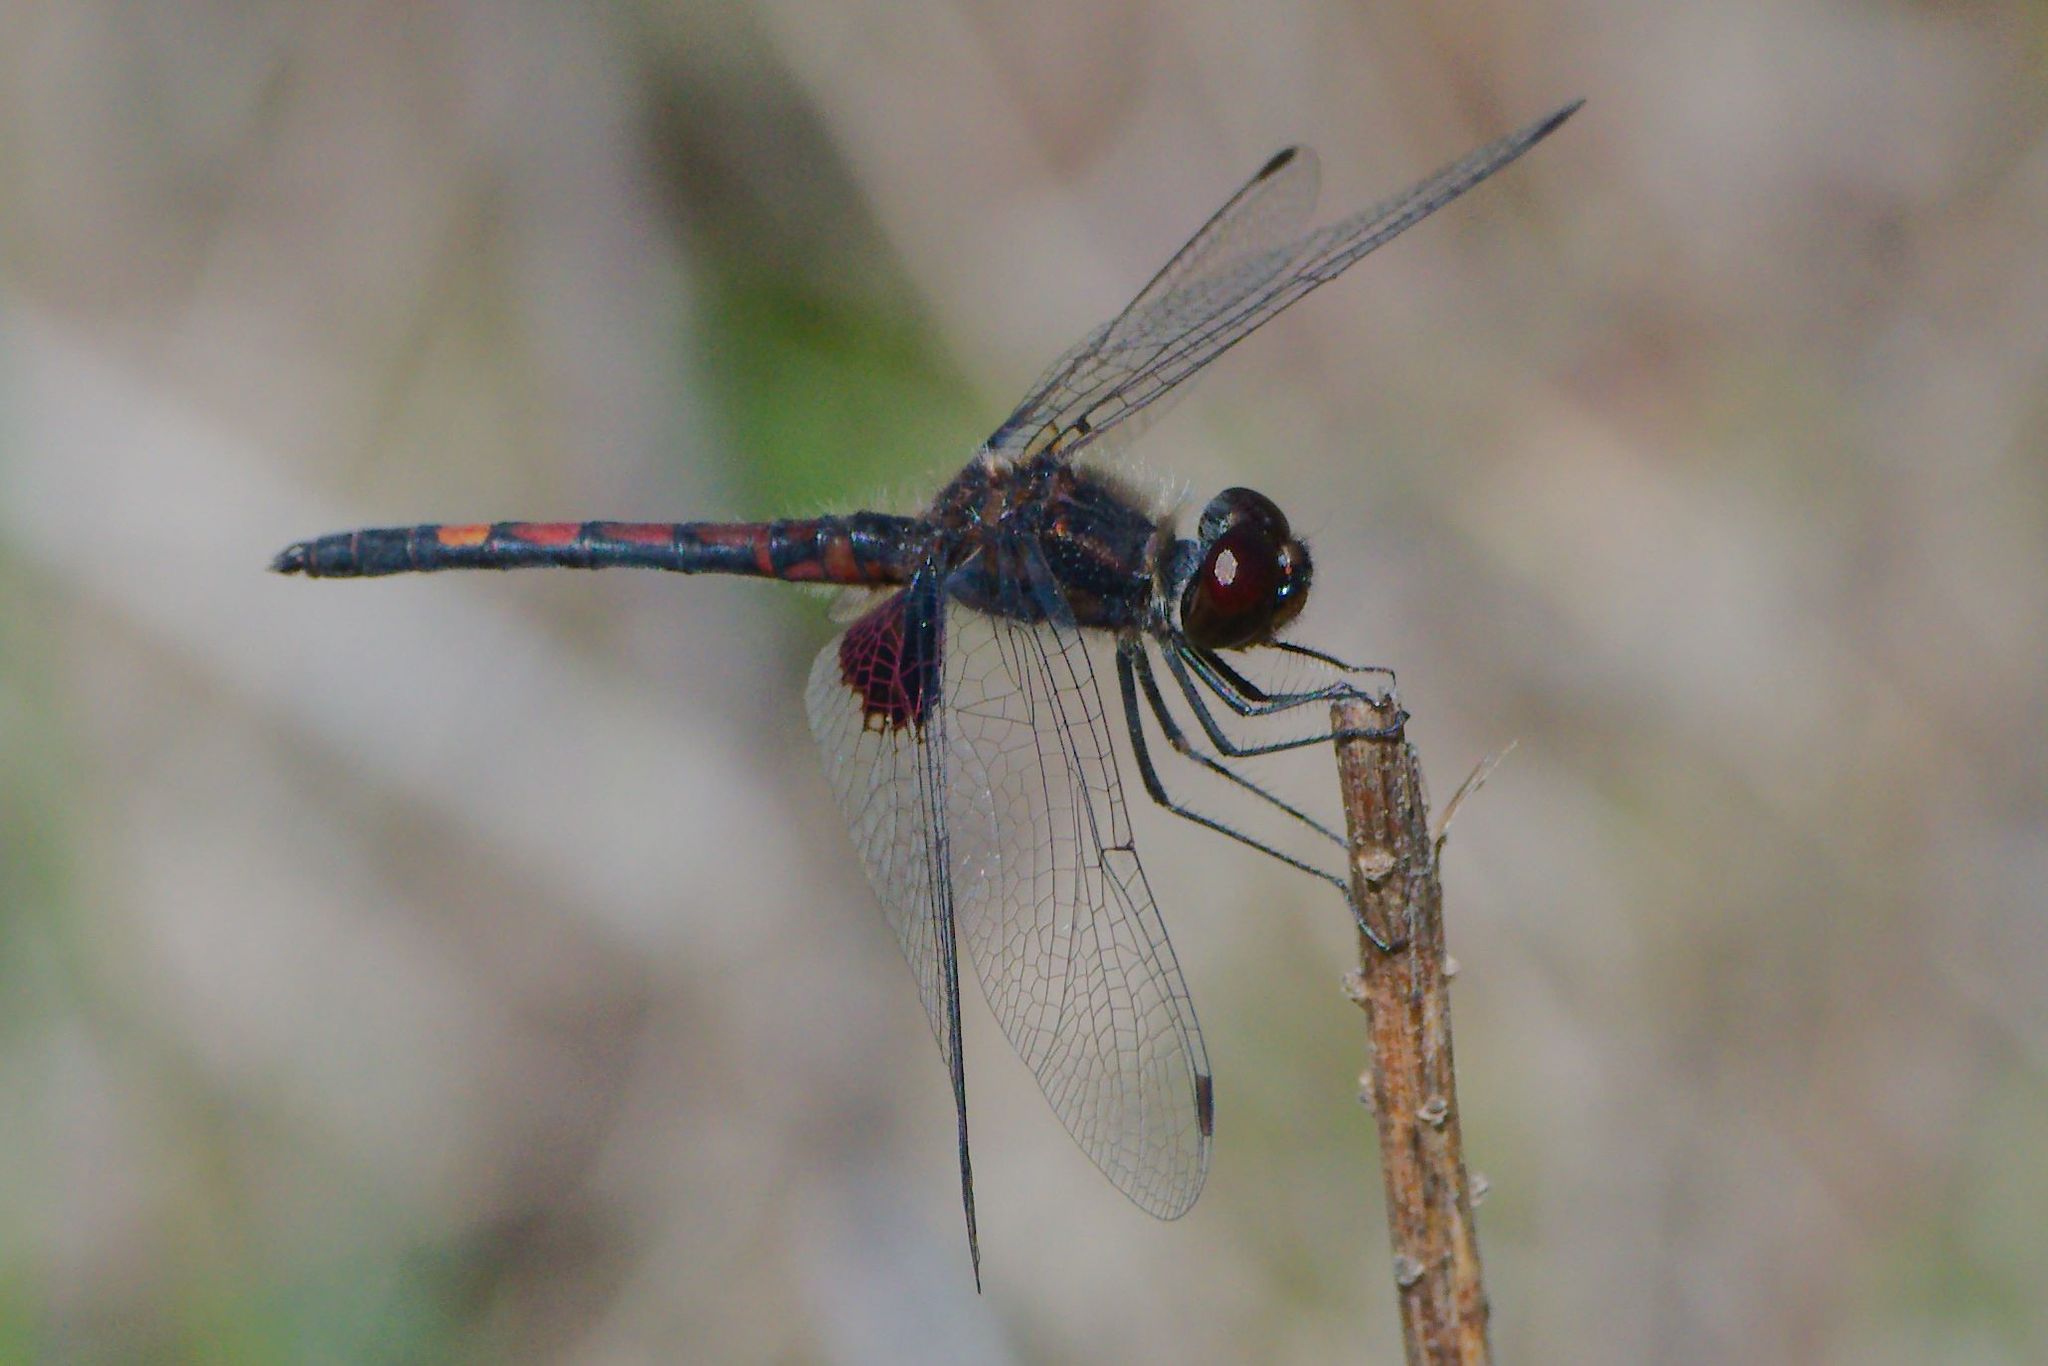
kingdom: Animalia
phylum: Arthropoda
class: Insecta
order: Odonata
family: Libellulidae
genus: Celithemis
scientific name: Celithemis ornata
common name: Ornate pennant
